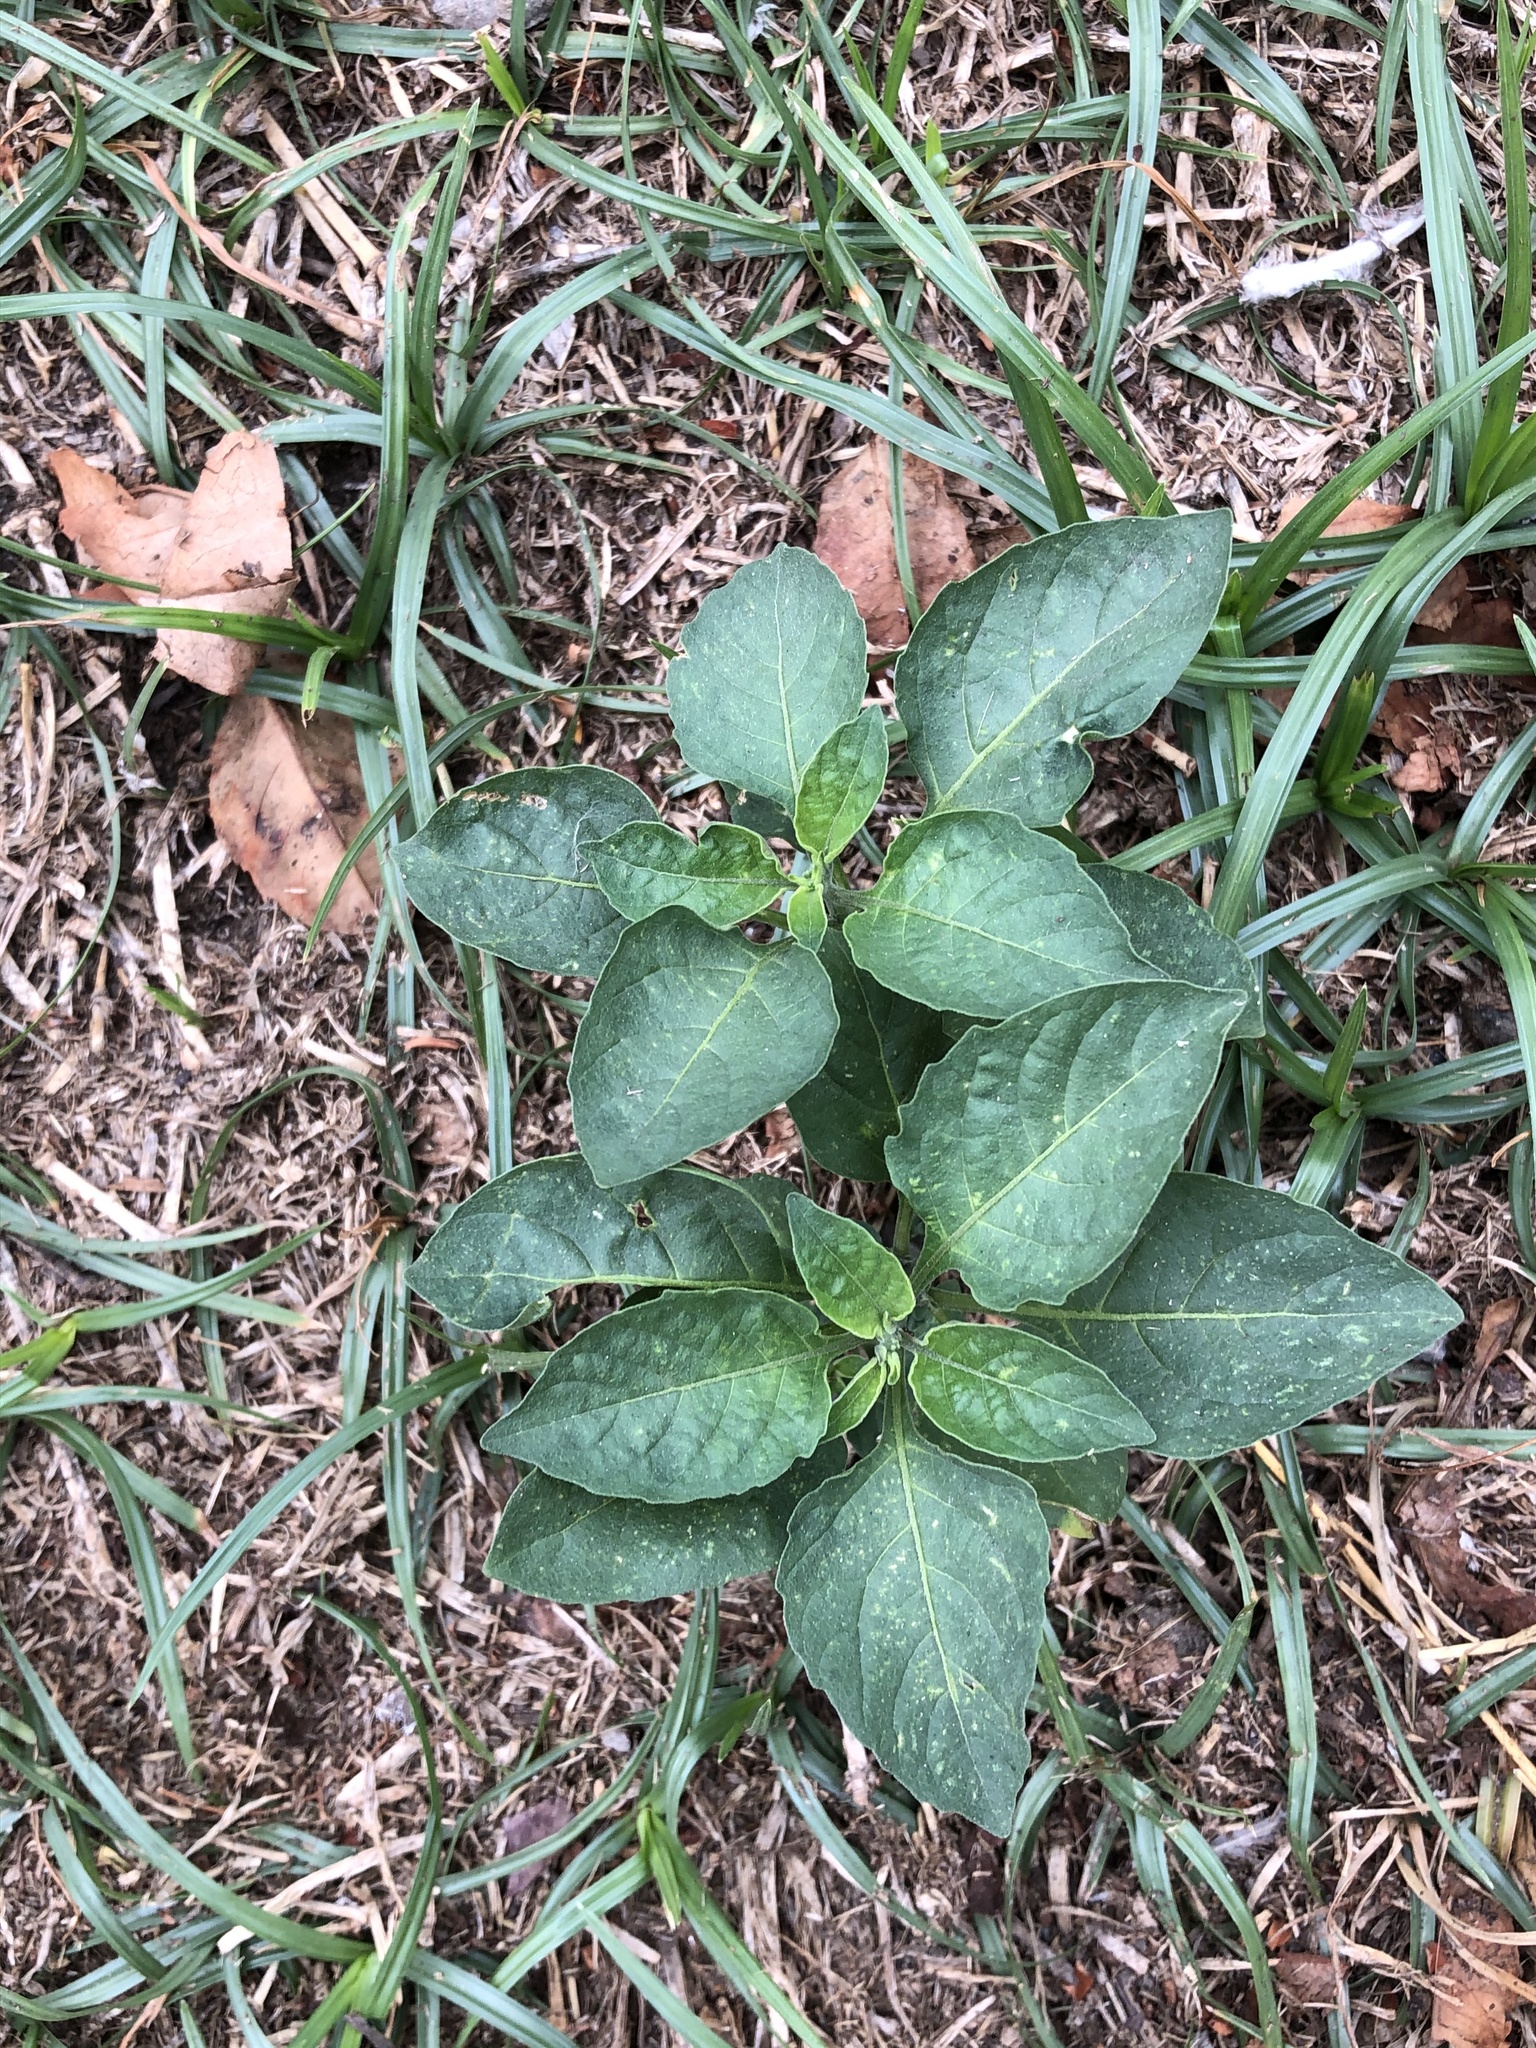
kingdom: Plantae
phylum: Tracheophyta
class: Magnoliopsida
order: Solanales
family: Solanaceae
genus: Solanum
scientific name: Solanum
